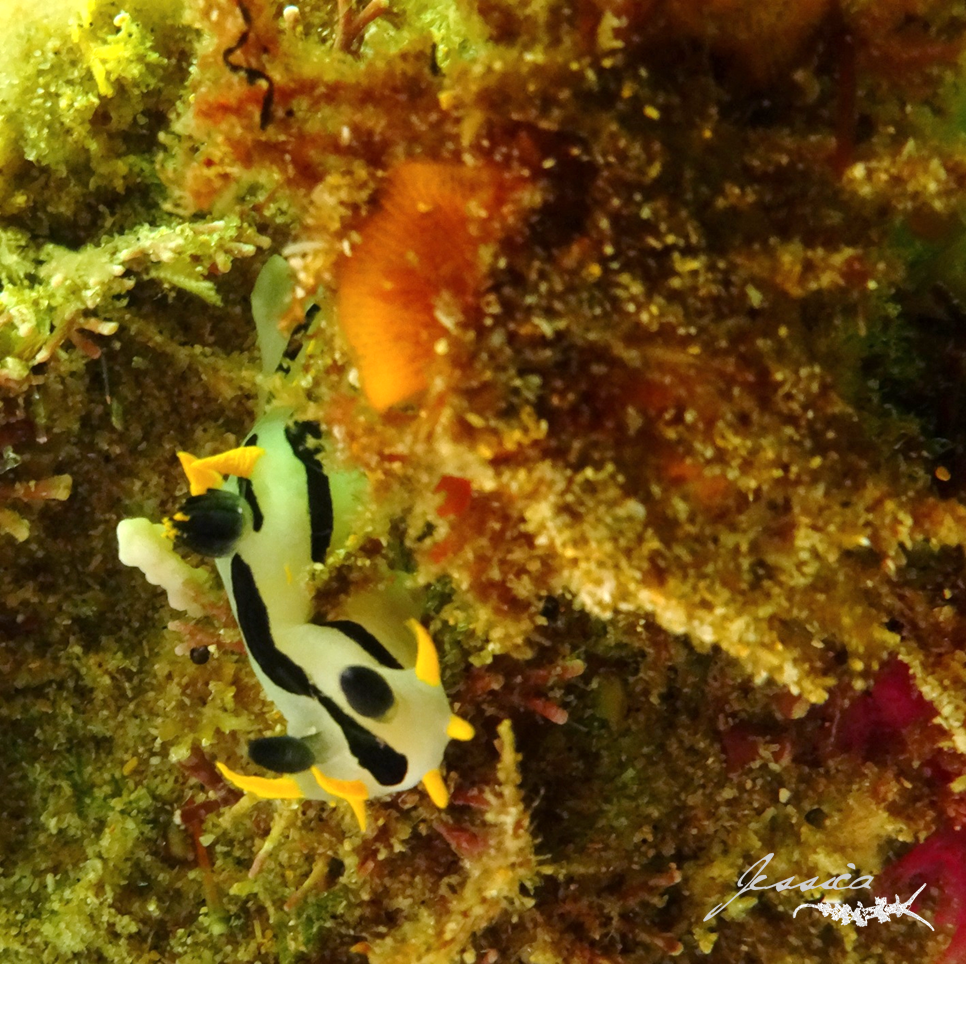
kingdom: Animalia
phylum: Mollusca
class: Gastropoda
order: Nudibranchia
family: Polyceridae
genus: Polycera
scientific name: Polycera capensis
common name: Crowned nudibranch
